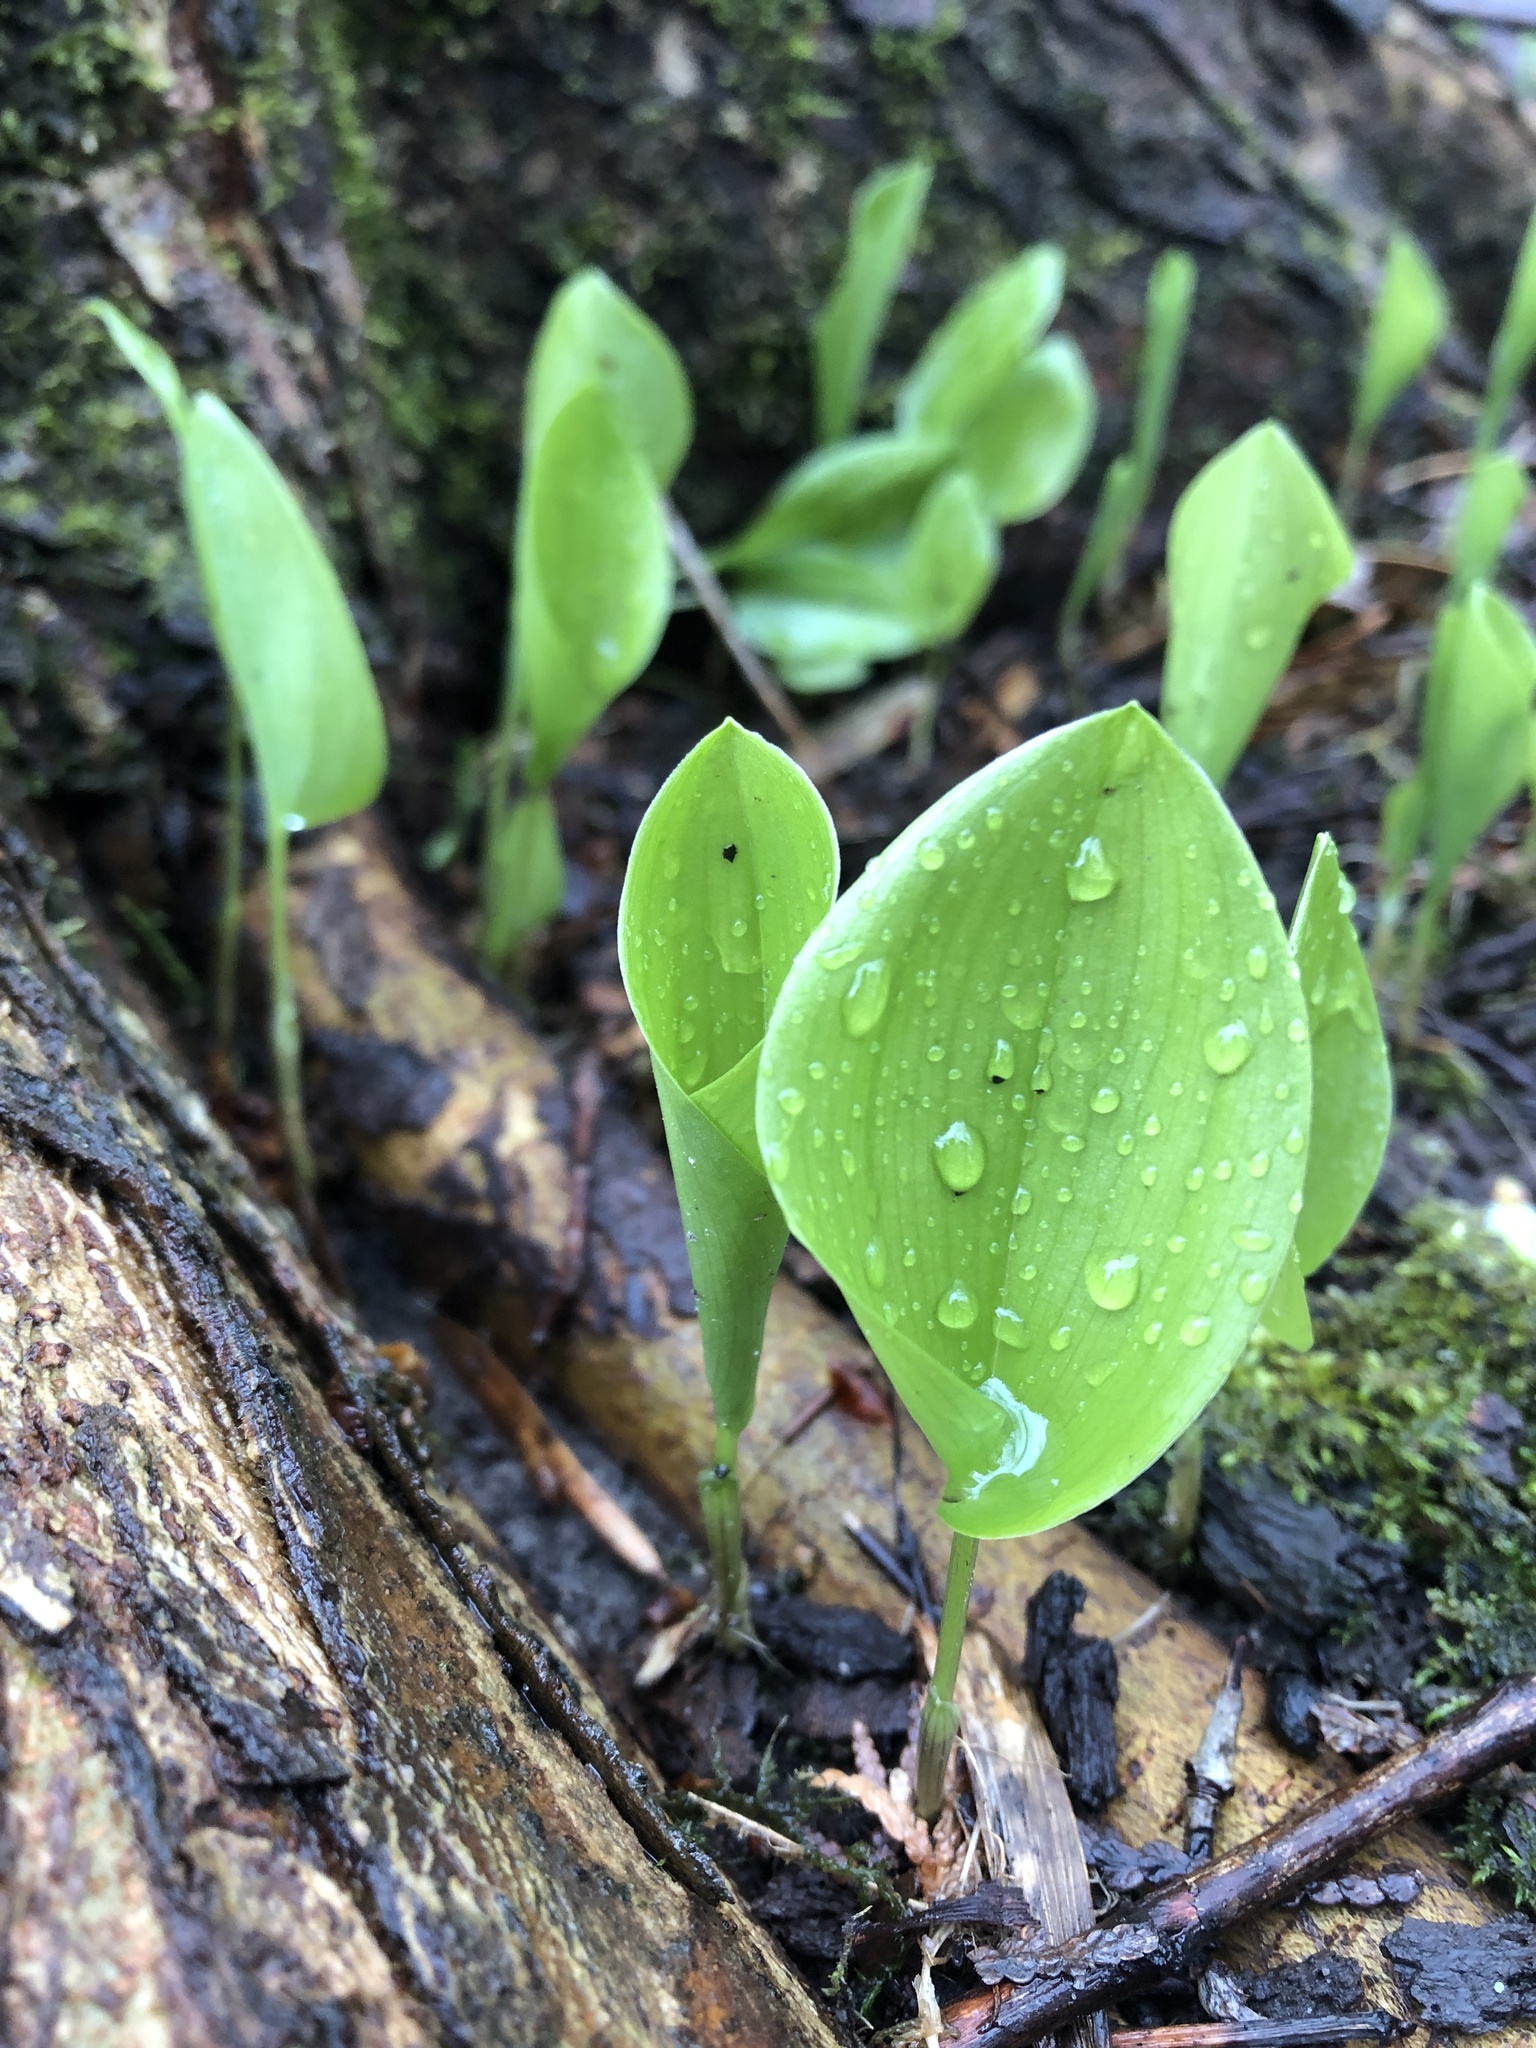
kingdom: Plantae
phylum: Tracheophyta
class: Liliopsida
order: Asparagales
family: Asparagaceae
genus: Maianthemum
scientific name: Maianthemum canadense
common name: False lily-of-the-valley
